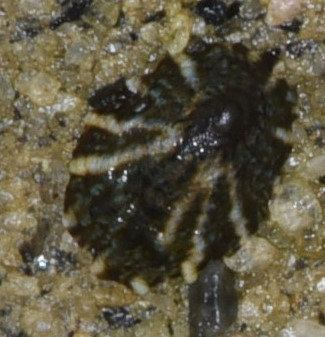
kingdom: Animalia
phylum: Mollusca
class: Gastropoda
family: Lottiidae
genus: Lottia
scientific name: Lottia conus
